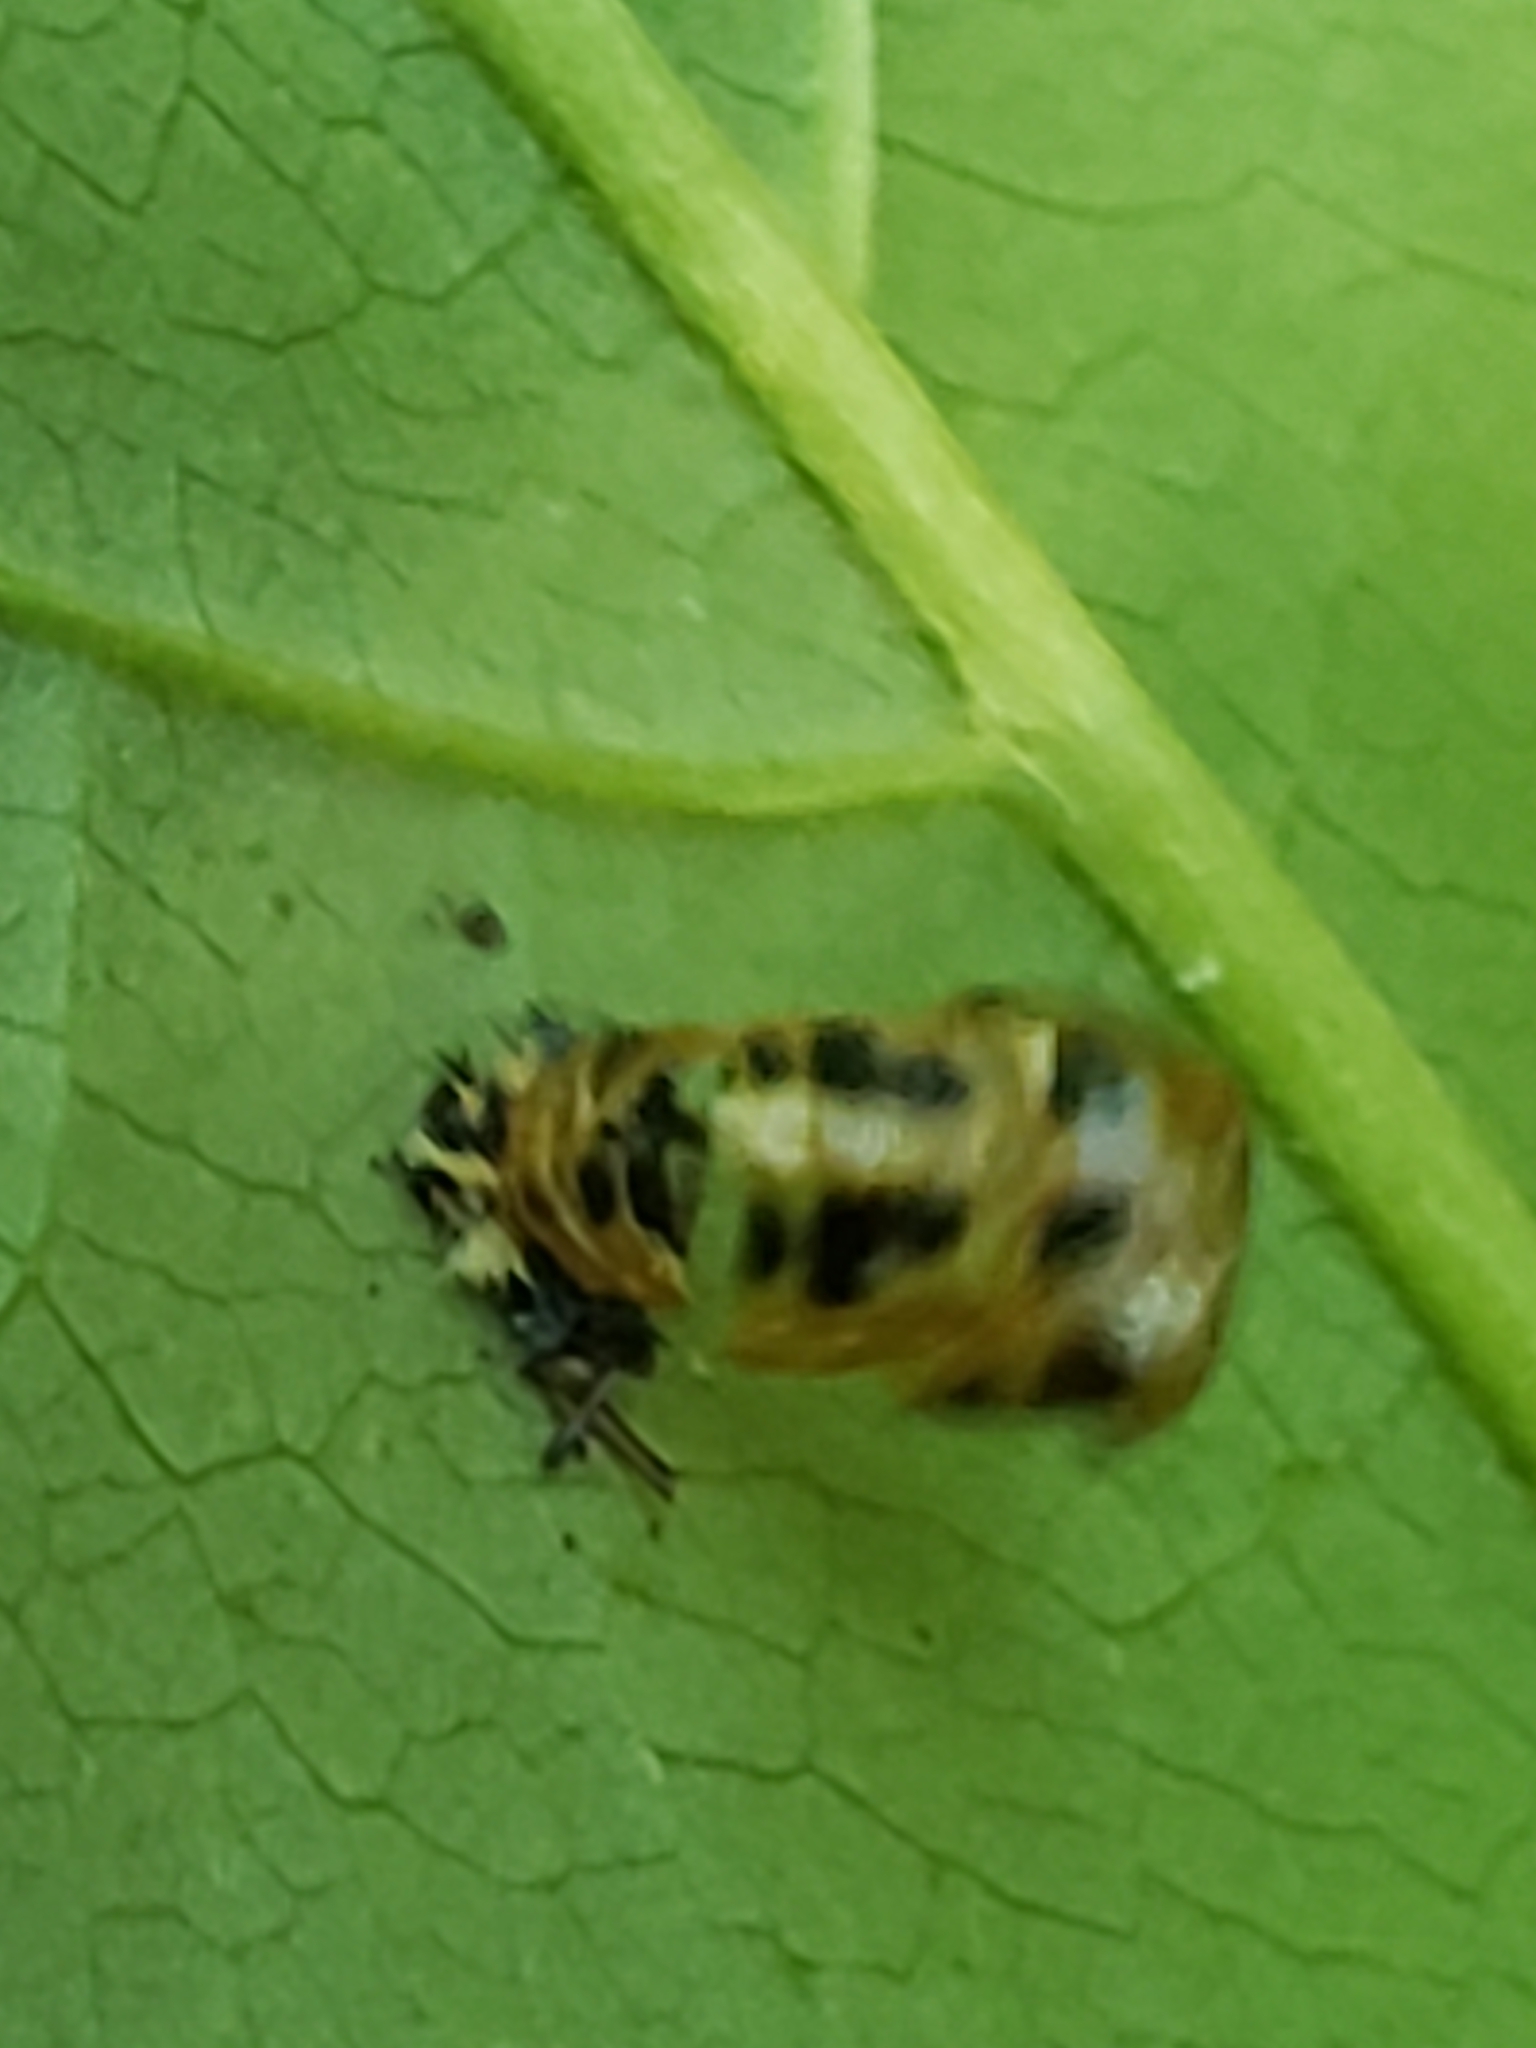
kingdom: Animalia
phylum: Arthropoda
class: Insecta
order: Coleoptera
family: Coccinellidae
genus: Harmonia
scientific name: Harmonia axyridis
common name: Harlequin ladybird
